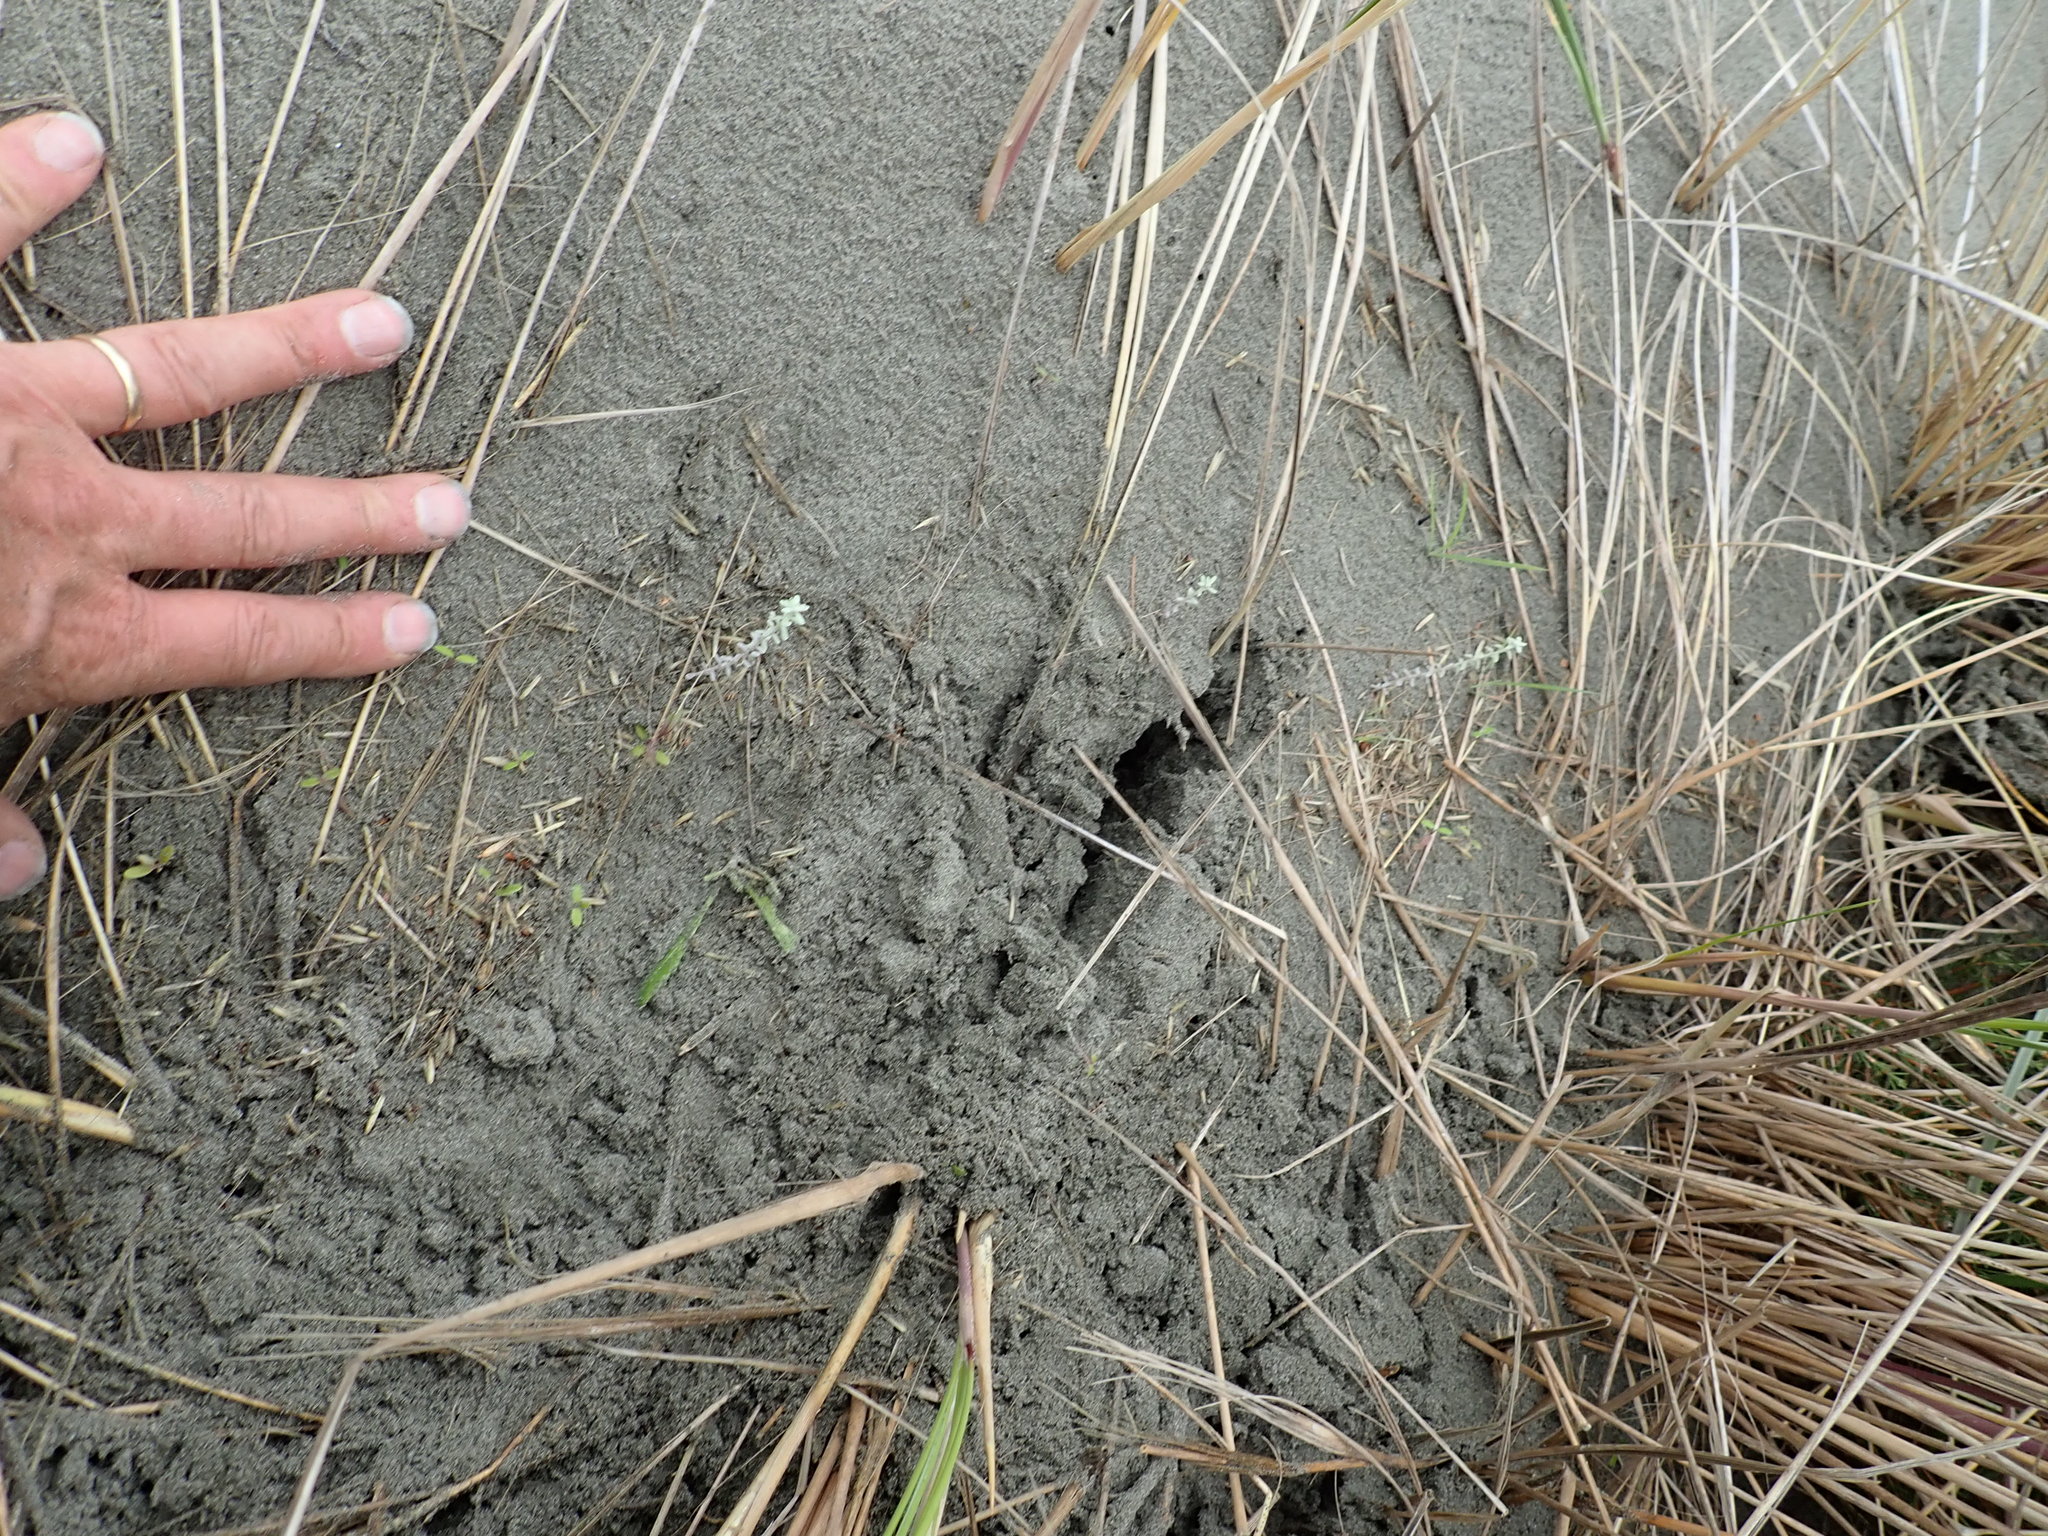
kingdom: Plantae
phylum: Tracheophyta
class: Magnoliopsida
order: Asterales
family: Asteraceae
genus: Ozothamnus
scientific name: Ozothamnus leptophyllus
